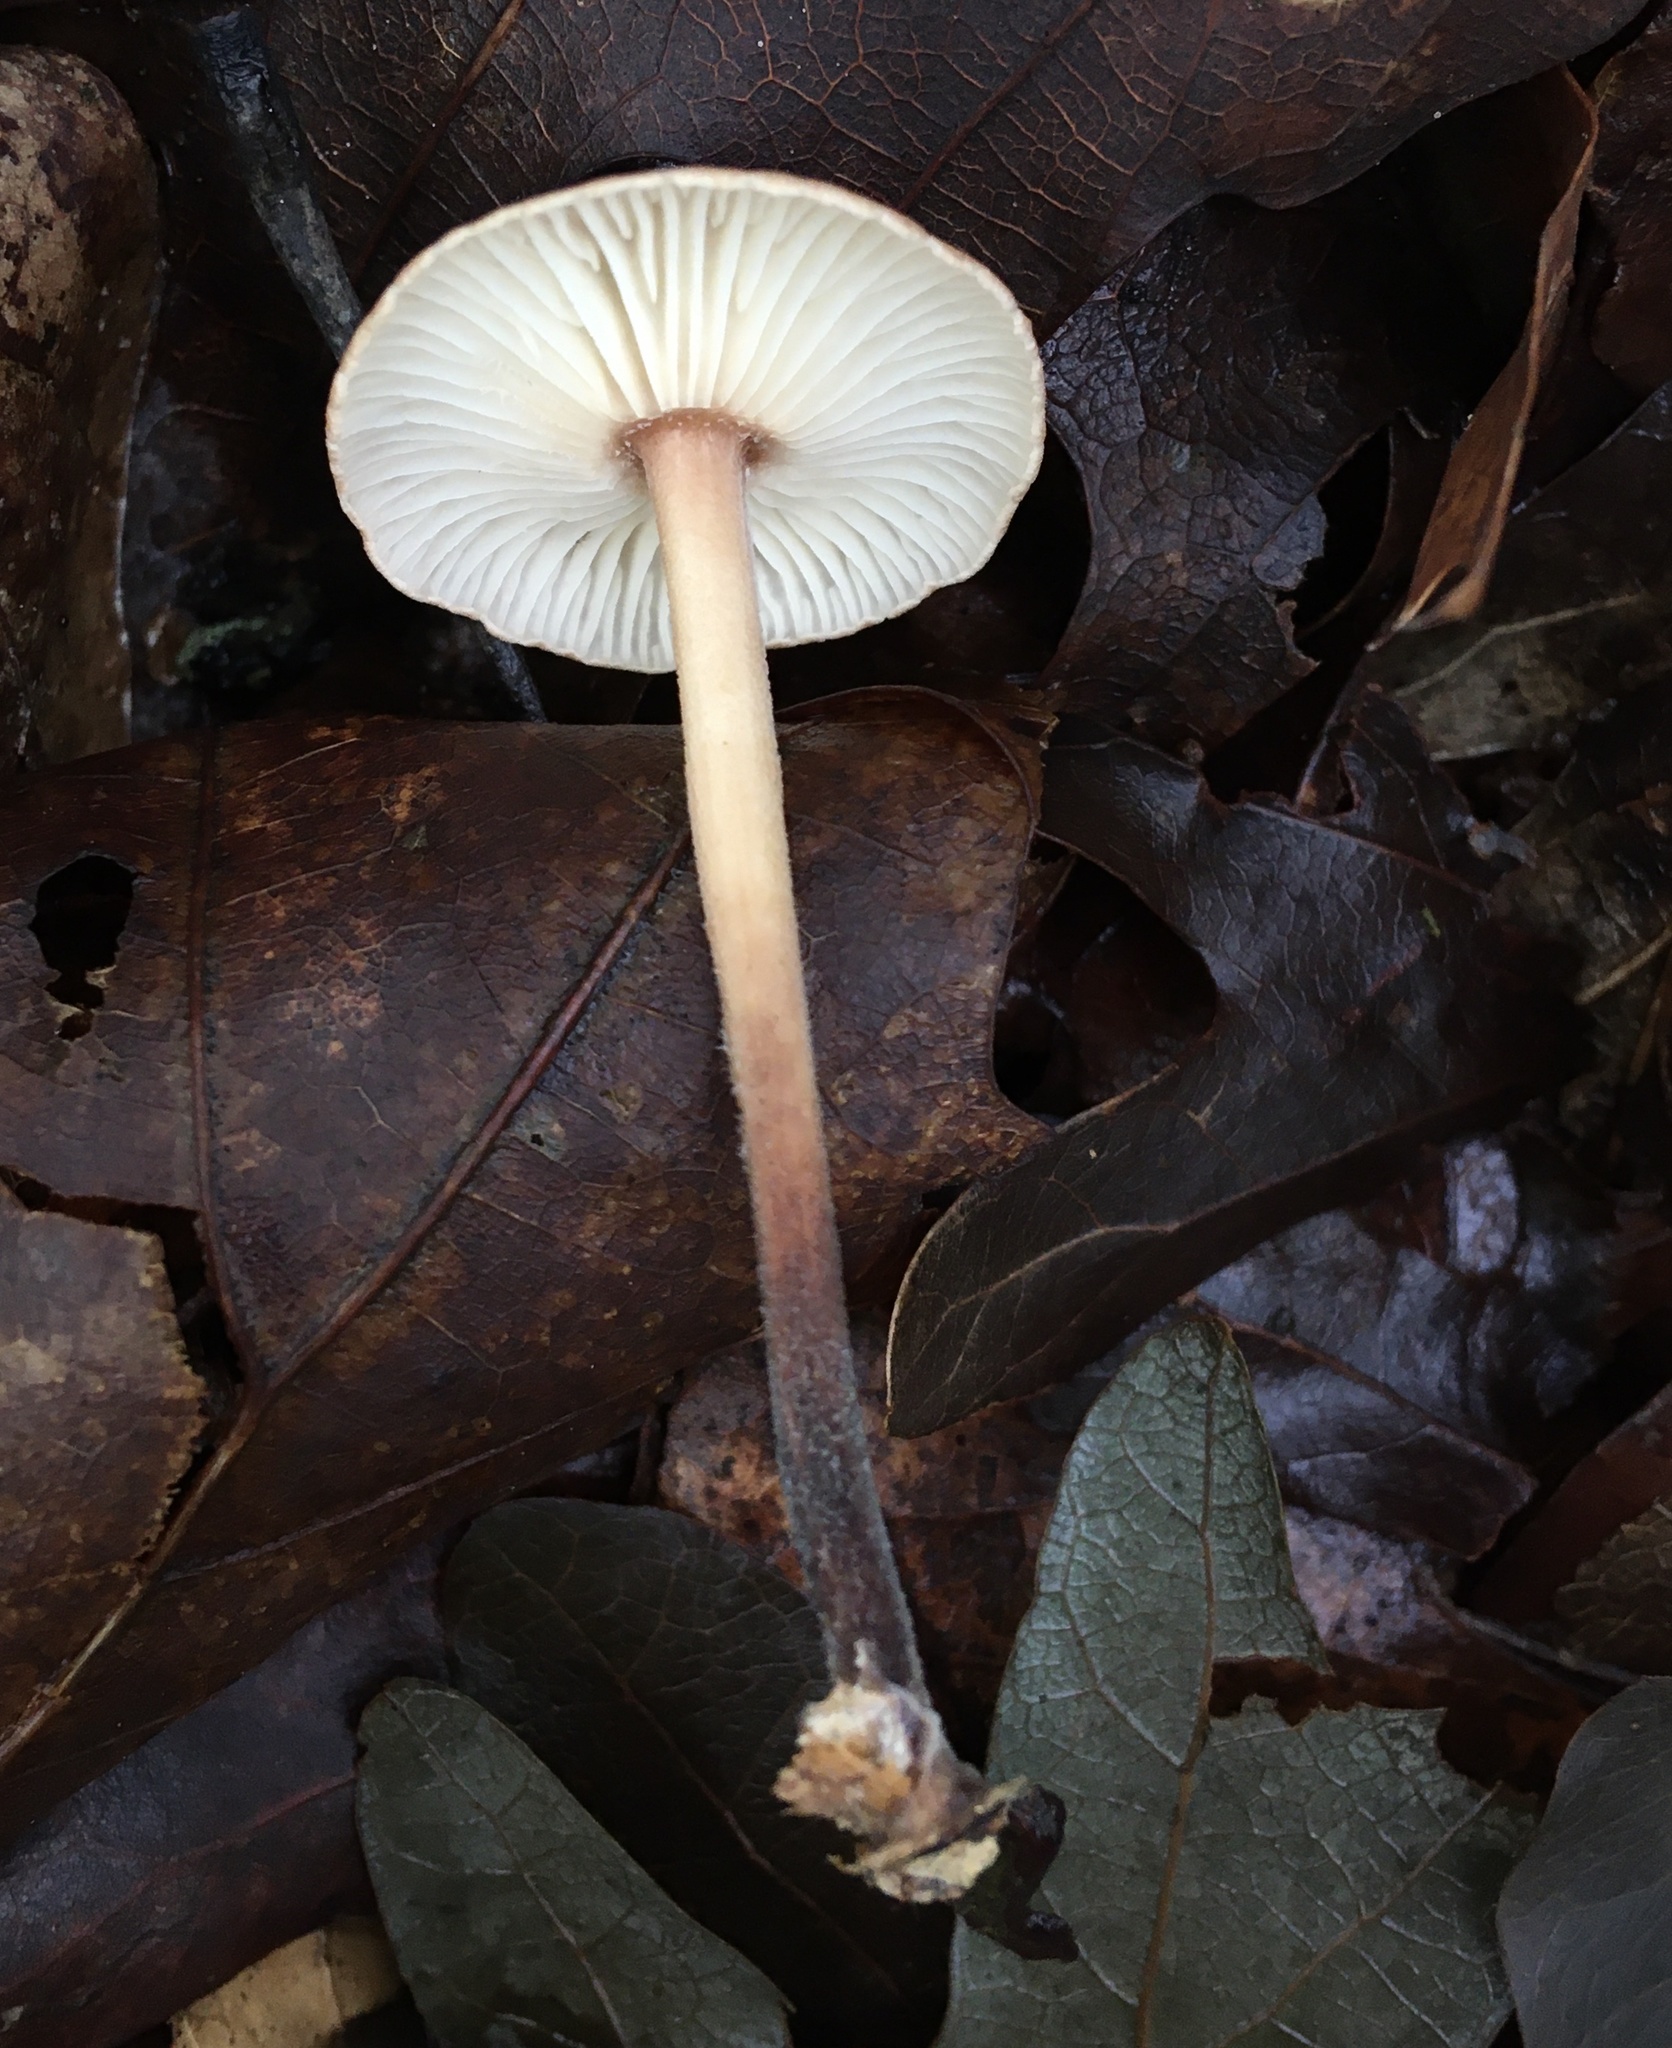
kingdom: Fungi
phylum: Basidiomycota
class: Agaricomycetes
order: Agaricales
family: Omphalotaceae
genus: Gymnopus
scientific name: Gymnopus brassicolens
